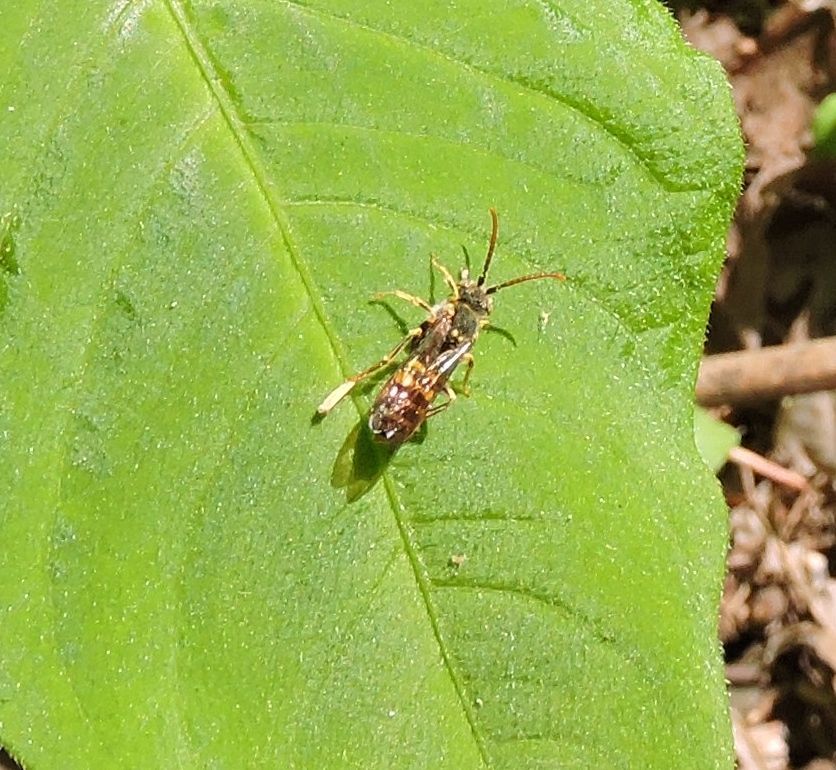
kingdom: Animalia
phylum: Arthropoda
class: Insecta
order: Hymenoptera
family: Apidae
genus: Nomada
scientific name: Nomada luteoloides
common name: Black-and-yellow nomad bee
